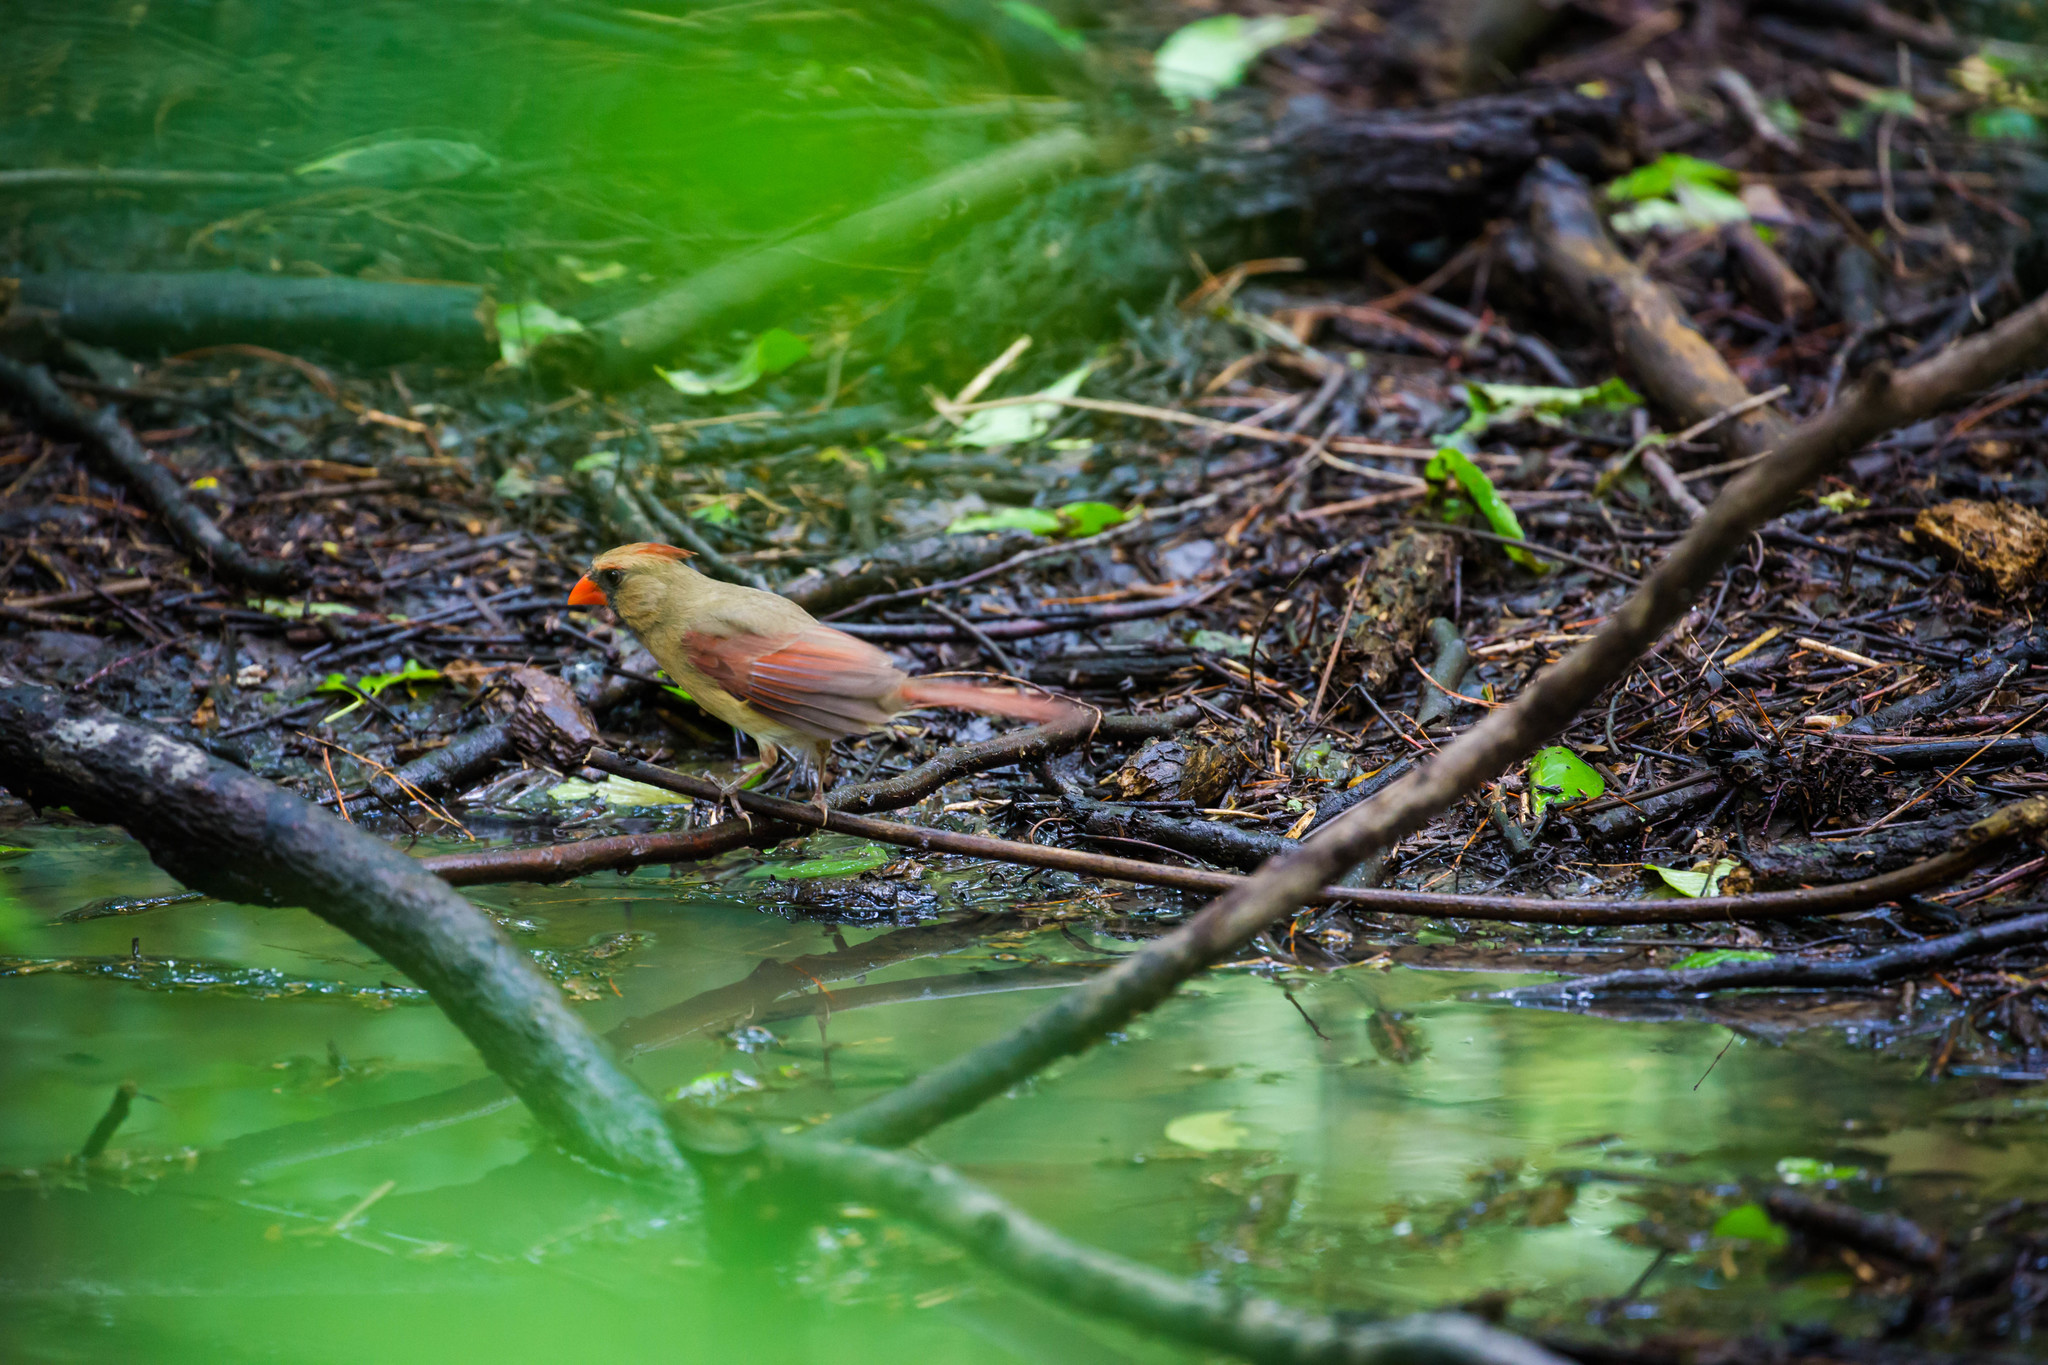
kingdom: Animalia
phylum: Chordata
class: Aves
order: Passeriformes
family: Cardinalidae
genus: Cardinalis
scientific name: Cardinalis cardinalis
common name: Northern cardinal
